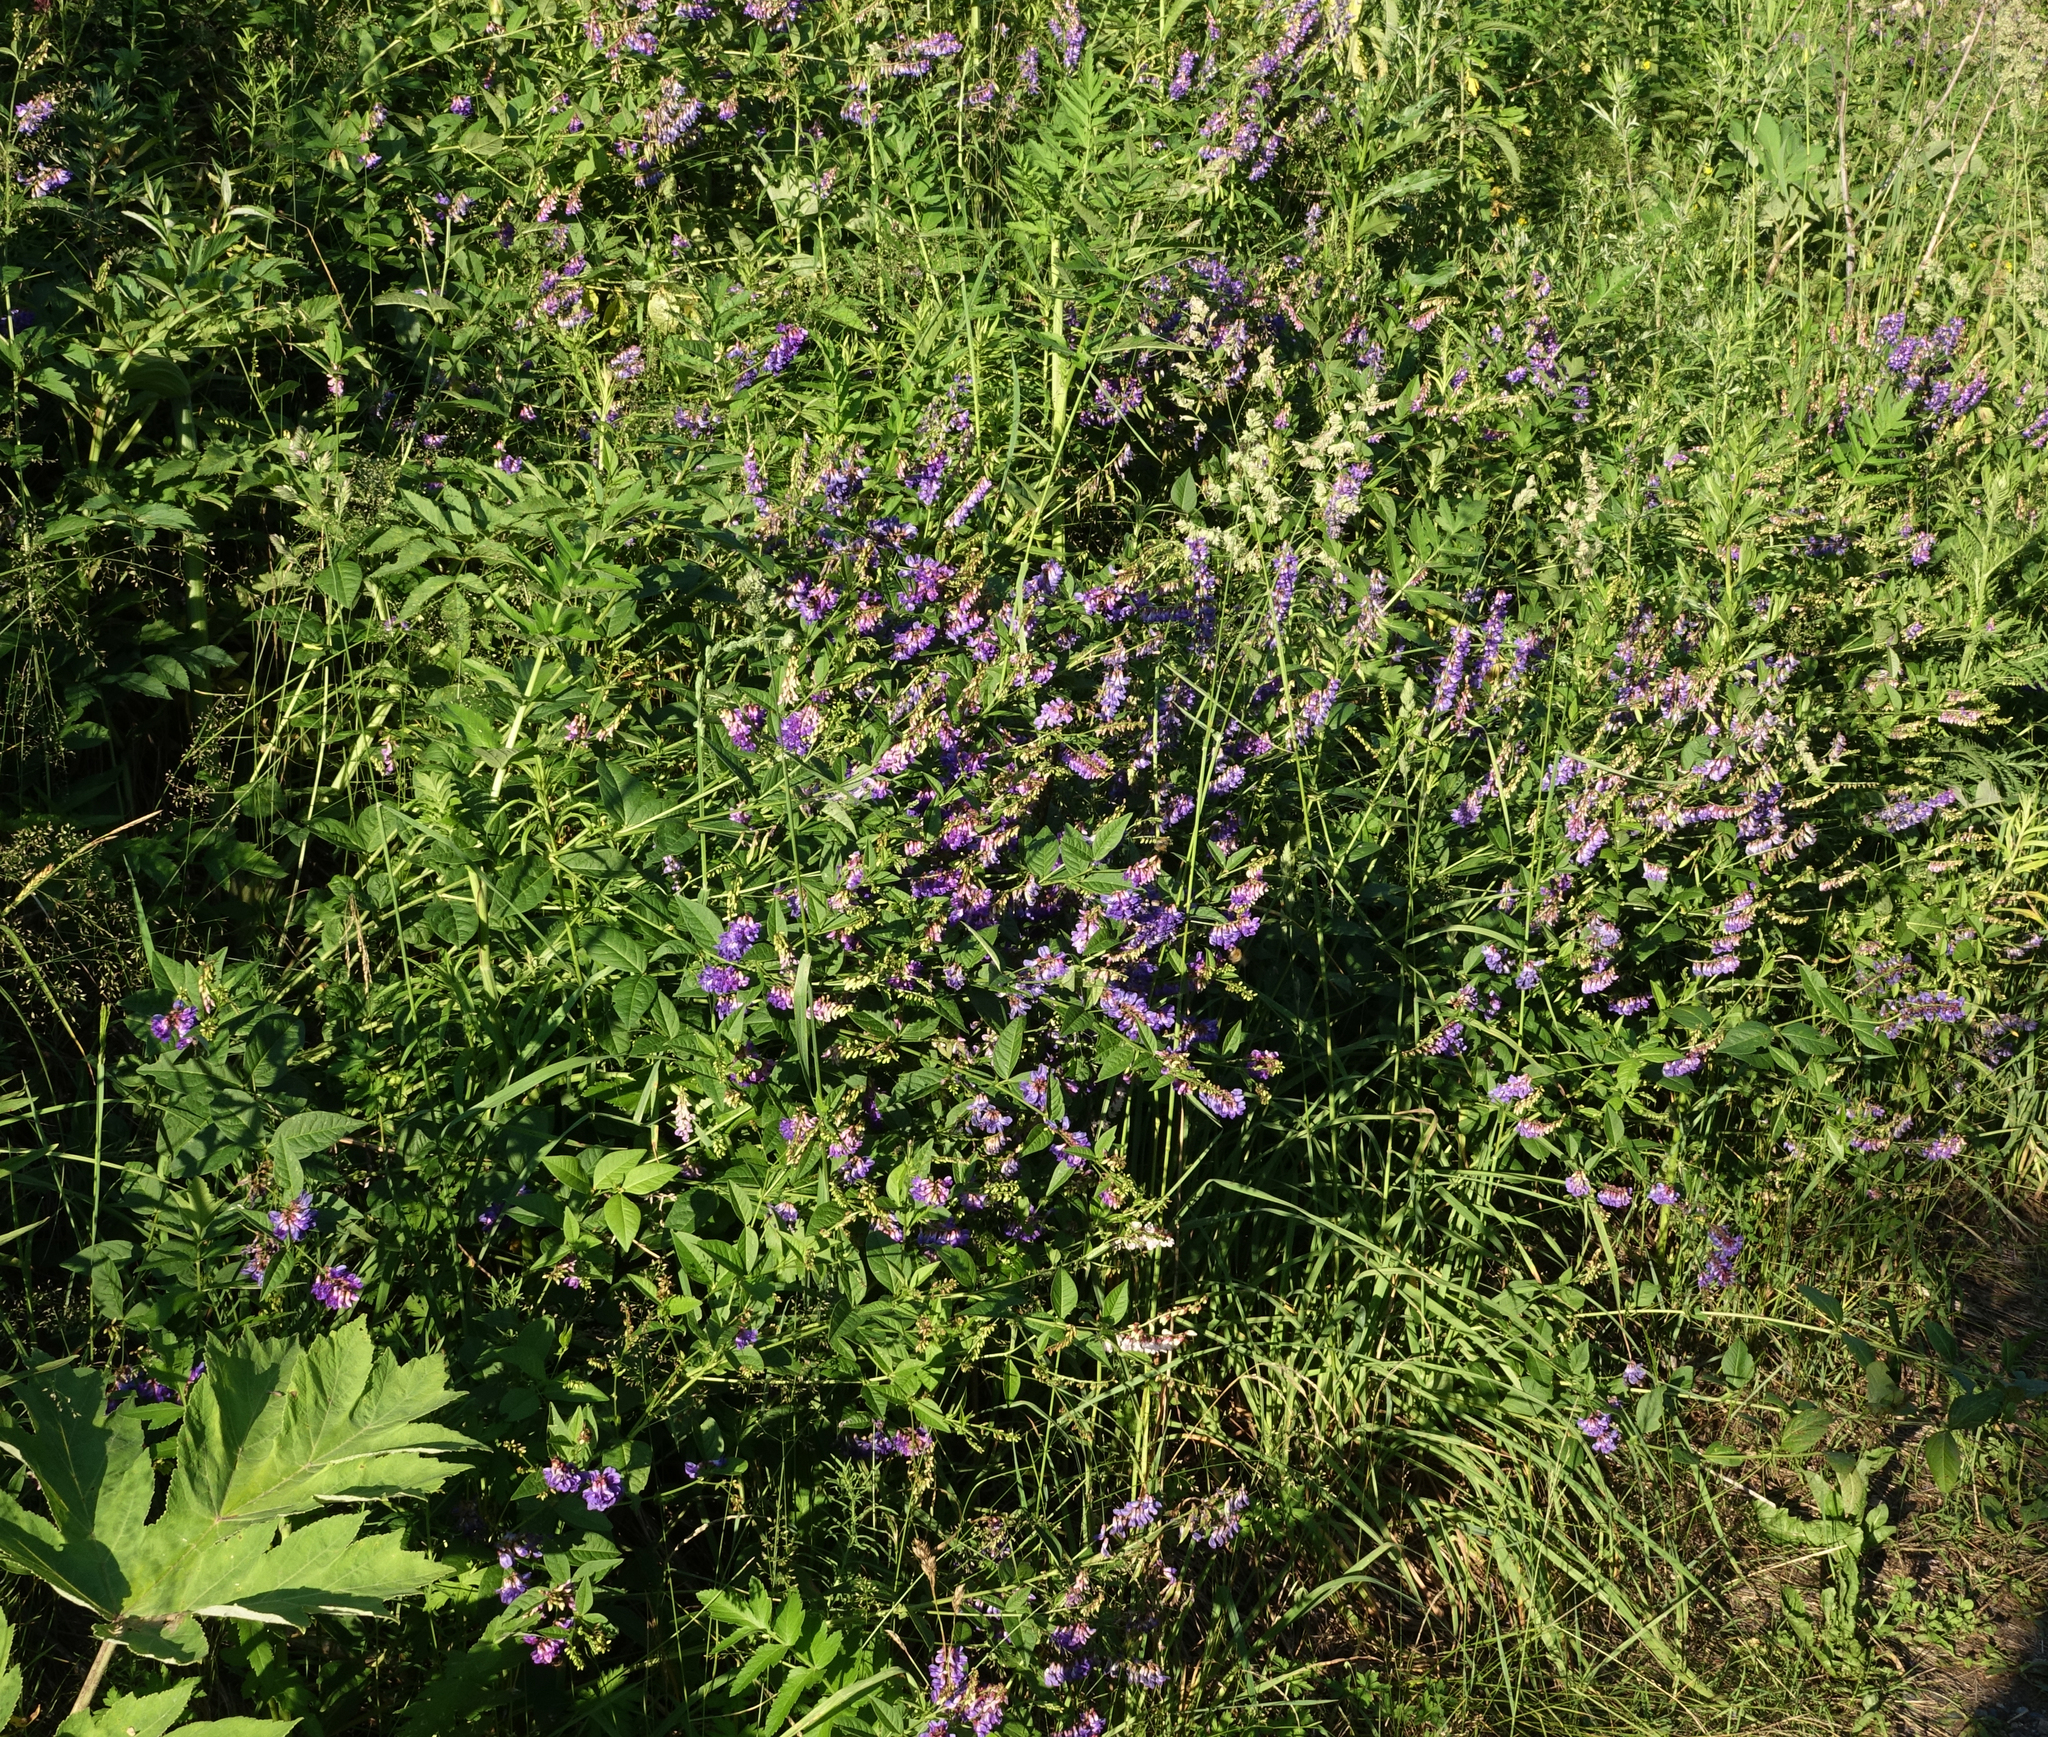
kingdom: Plantae
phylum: Tracheophyta
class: Magnoliopsida
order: Fabales
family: Fabaceae
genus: Vicia
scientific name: Vicia unijuga
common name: Two-leaf vetch
